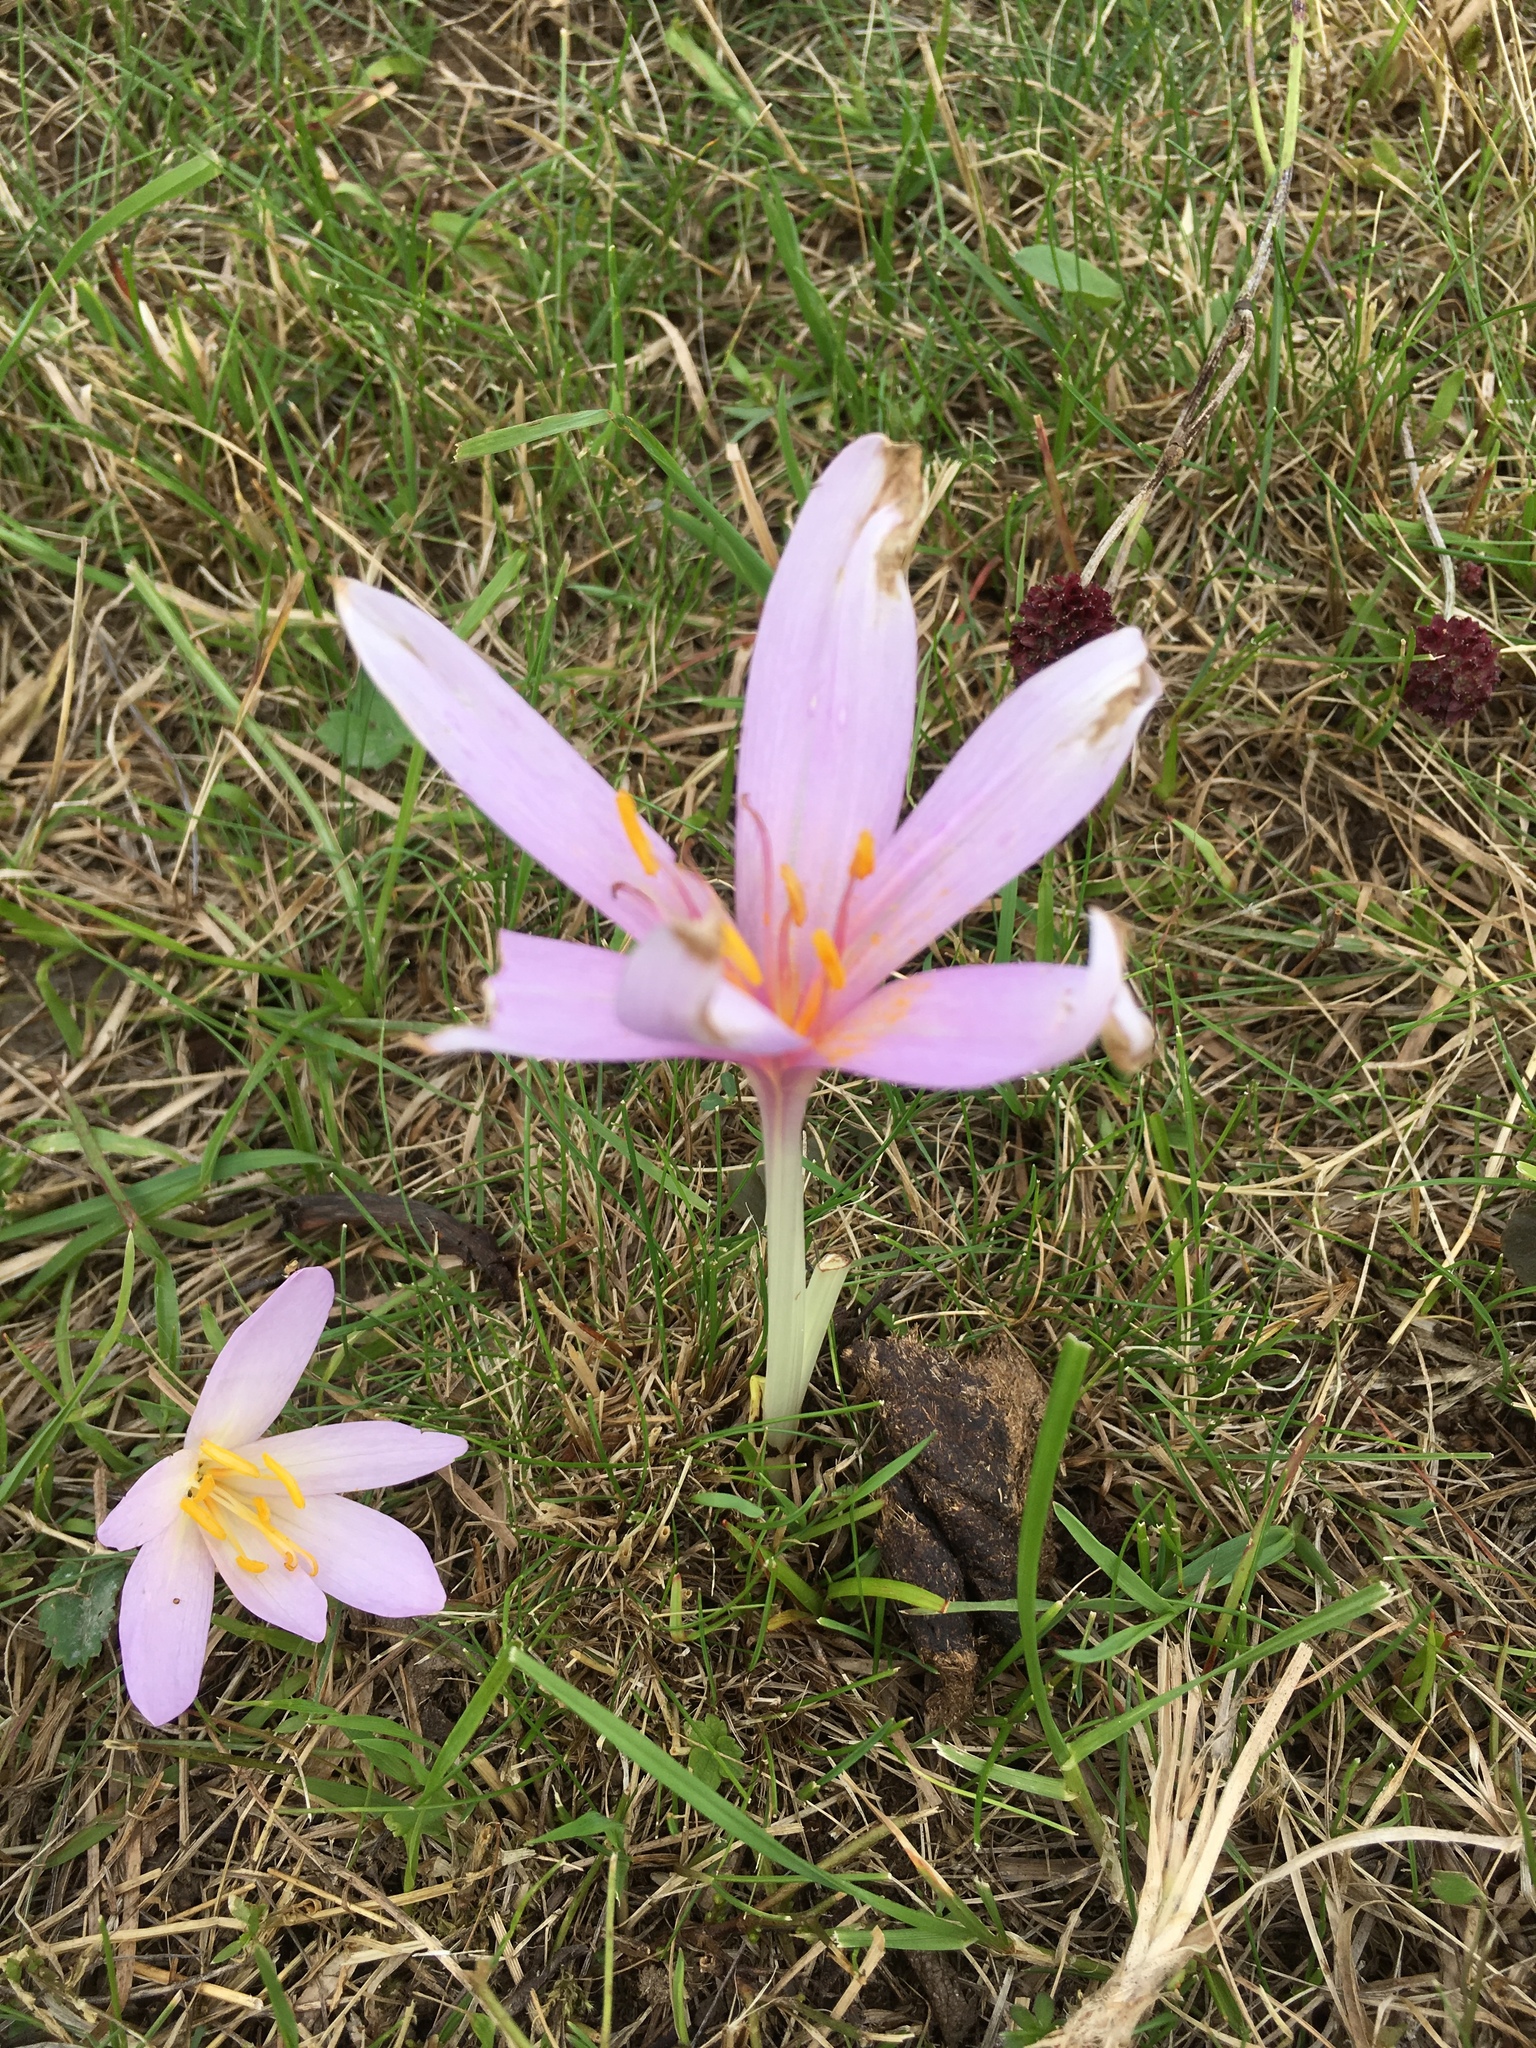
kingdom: Plantae
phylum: Tracheophyta
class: Liliopsida
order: Liliales
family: Colchicaceae
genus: Colchicum
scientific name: Colchicum autumnale
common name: Autumn crocus
